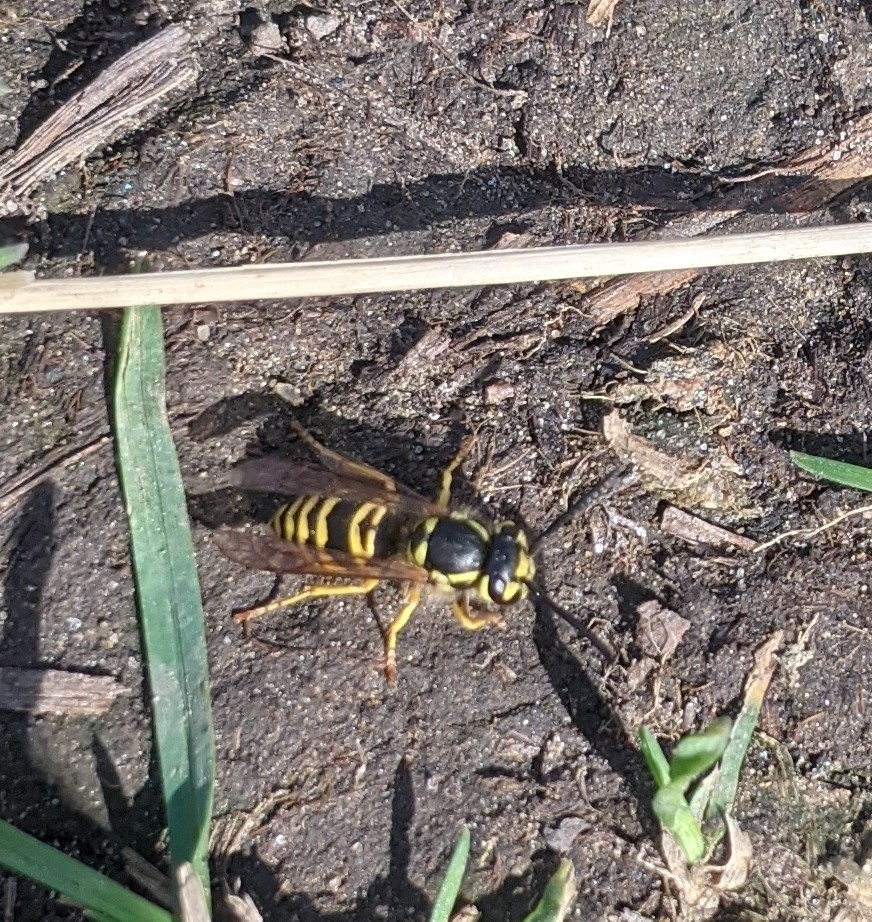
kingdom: Animalia
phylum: Arthropoda
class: Insecta
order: Hymenoptera
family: Vespidae
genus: Vespula
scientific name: Vespula maculifrons
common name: Eastern yellowjacket
